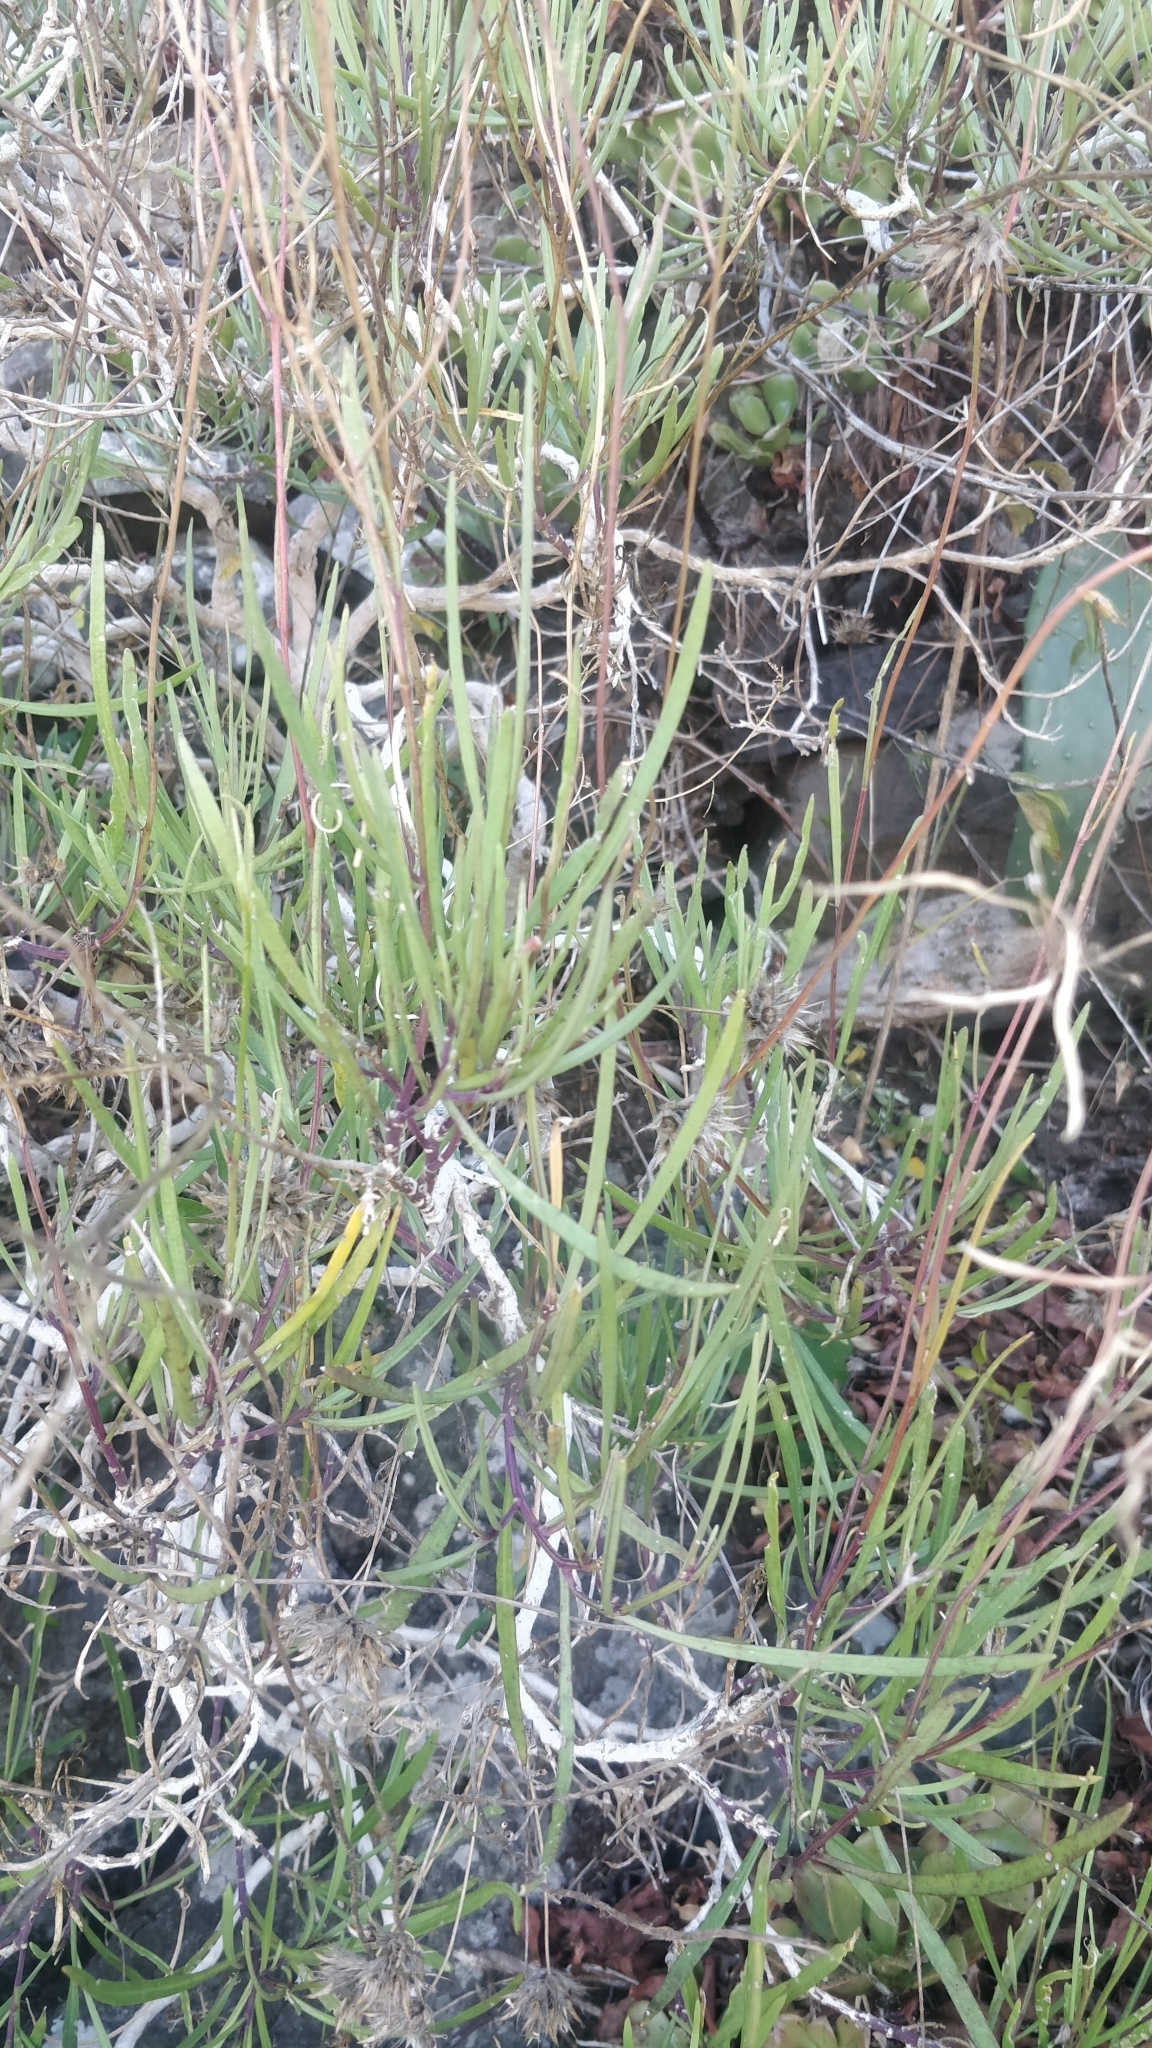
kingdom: Plantae
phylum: Tracheophyta
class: Magnoliopsida
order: Brassicales
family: Brassicaceae
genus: Sinapidendron
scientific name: Sinapidendron angustifolium
